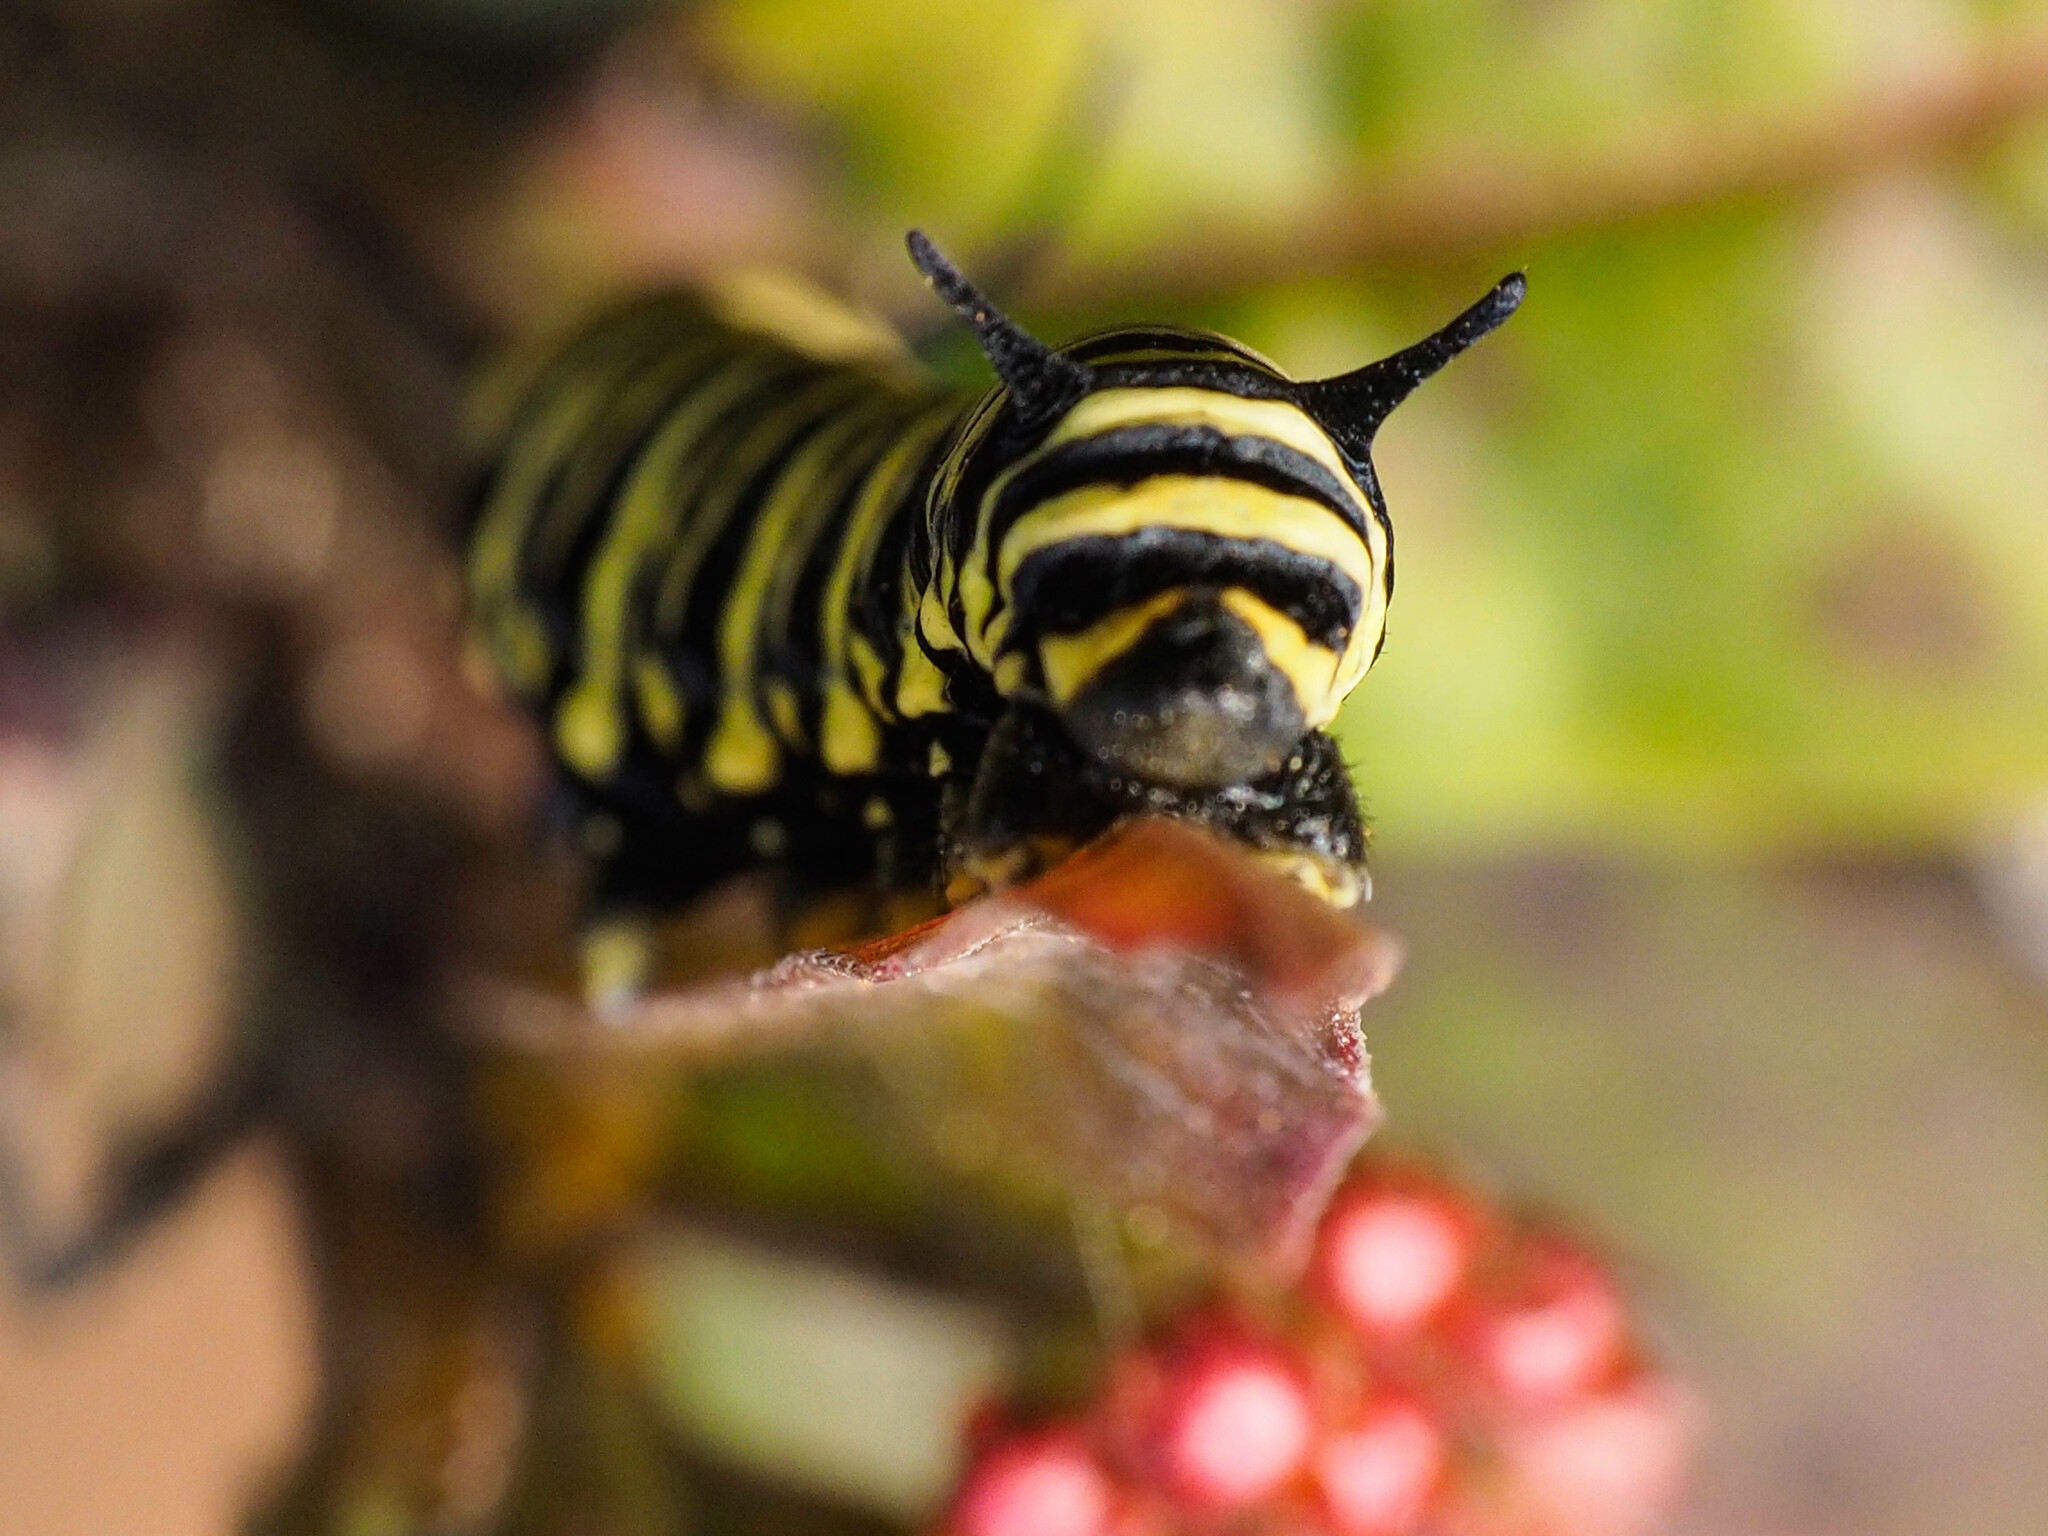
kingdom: Animalia
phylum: Arthropoda
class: Insecta
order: Lepidoptera
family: Nymphalidae
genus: Danaus
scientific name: Danaus erippus
